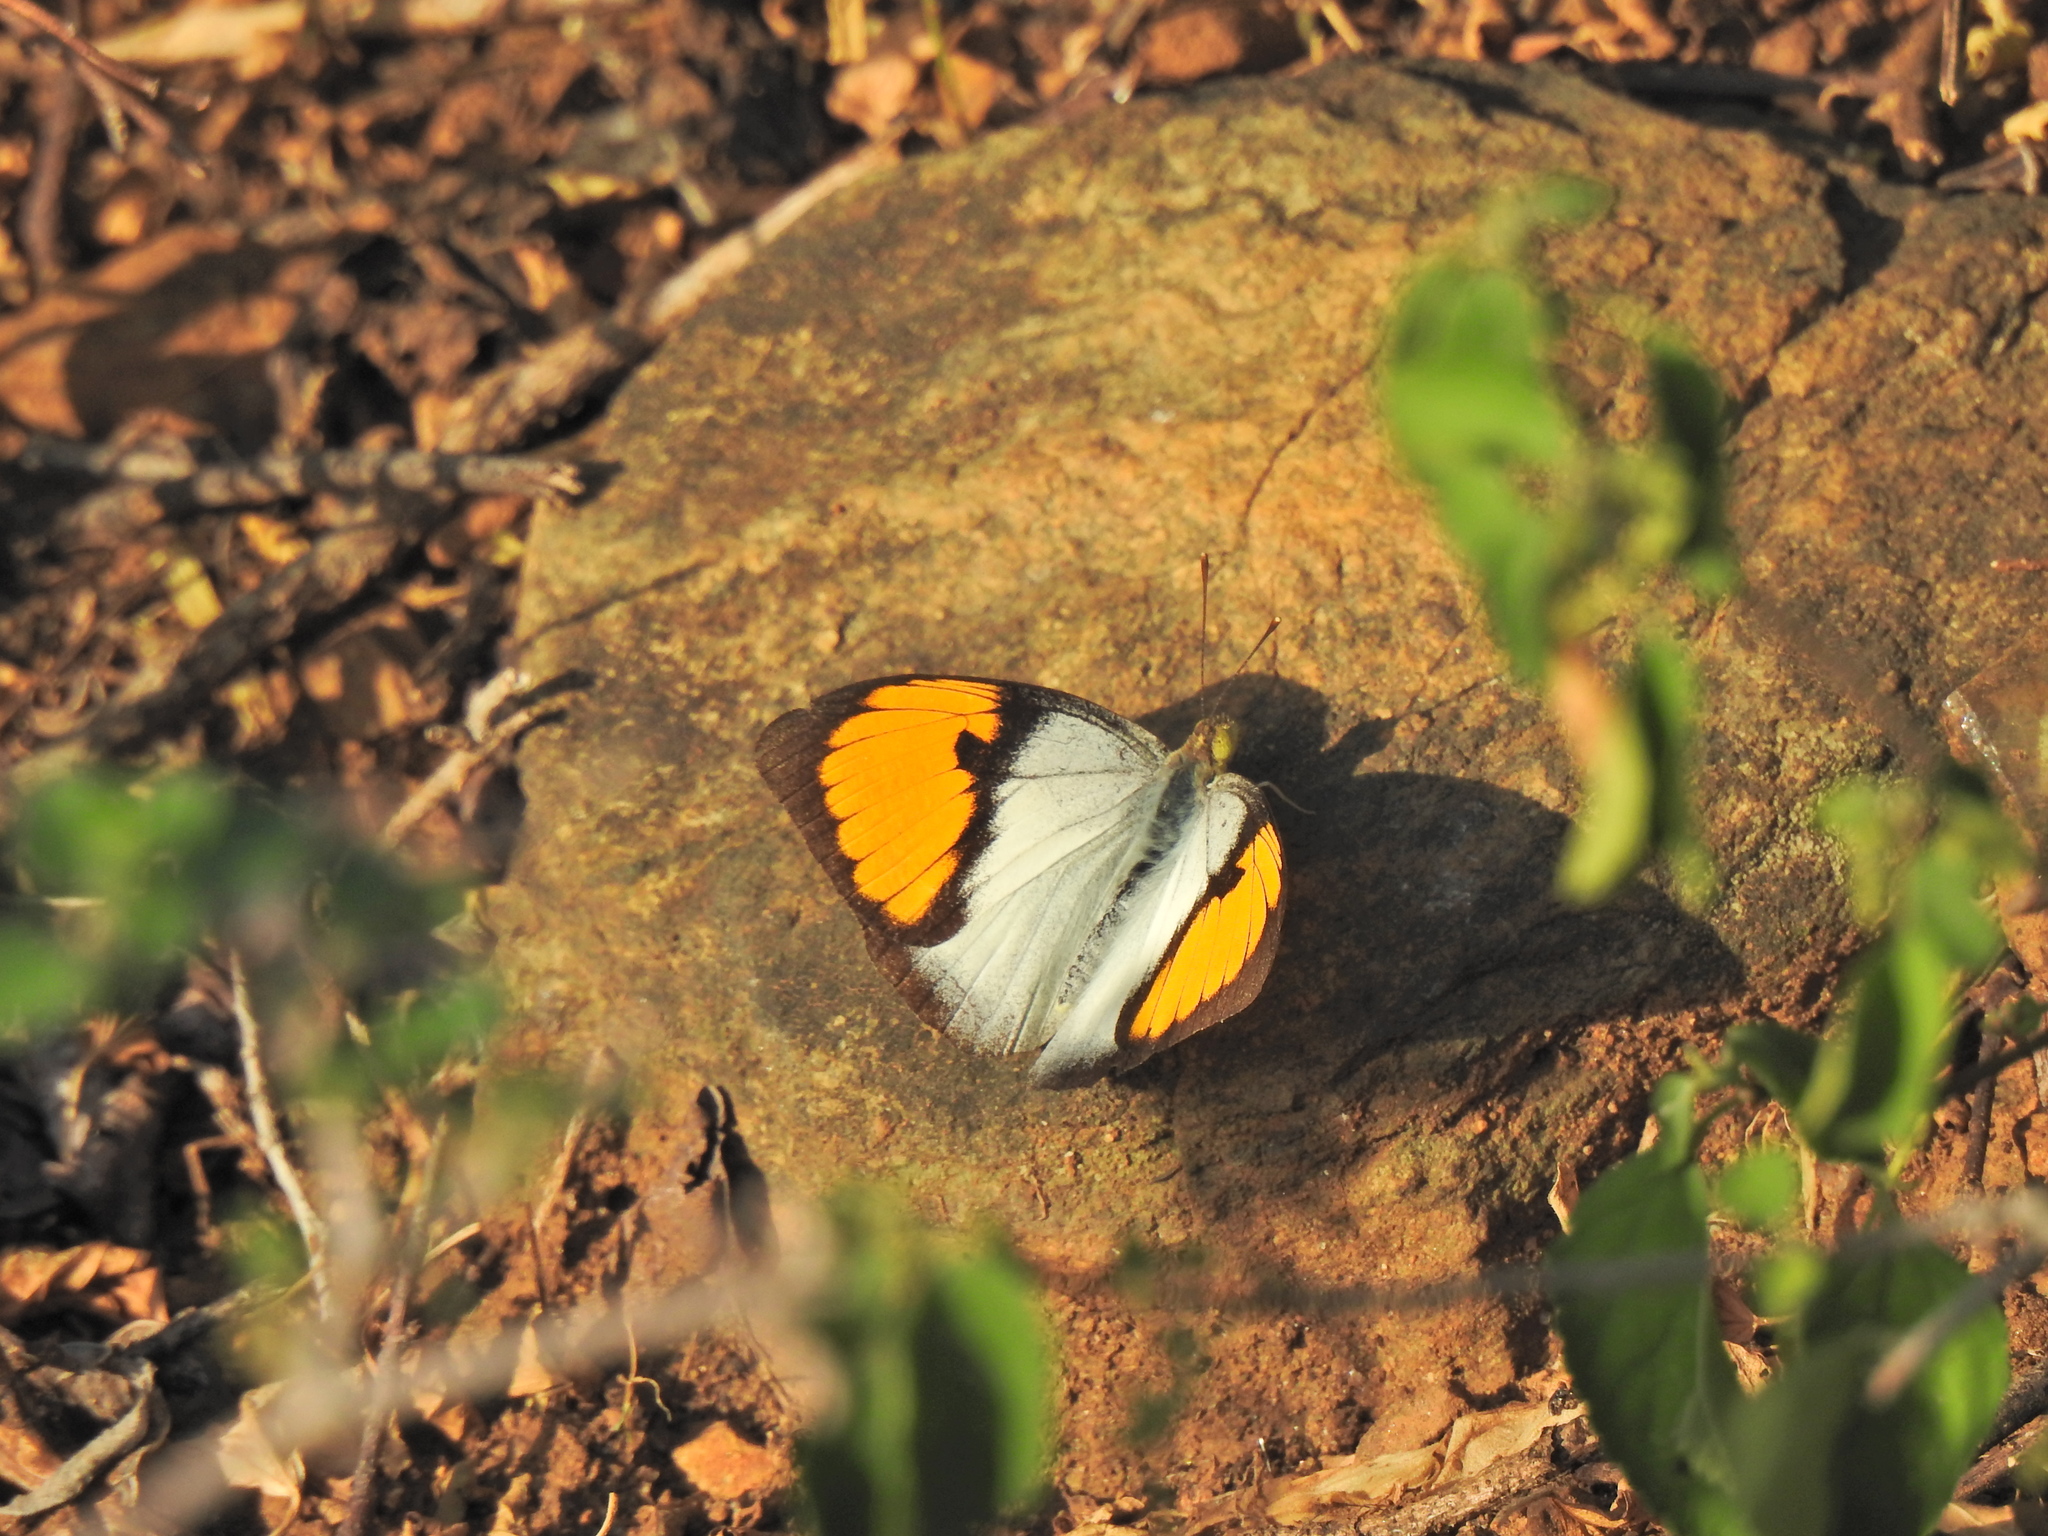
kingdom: Animalia
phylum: Arthropoda
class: Insecta
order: Lepidoptera
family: Pieridae
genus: Ixias
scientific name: Ixias marianne
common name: White orange tip
